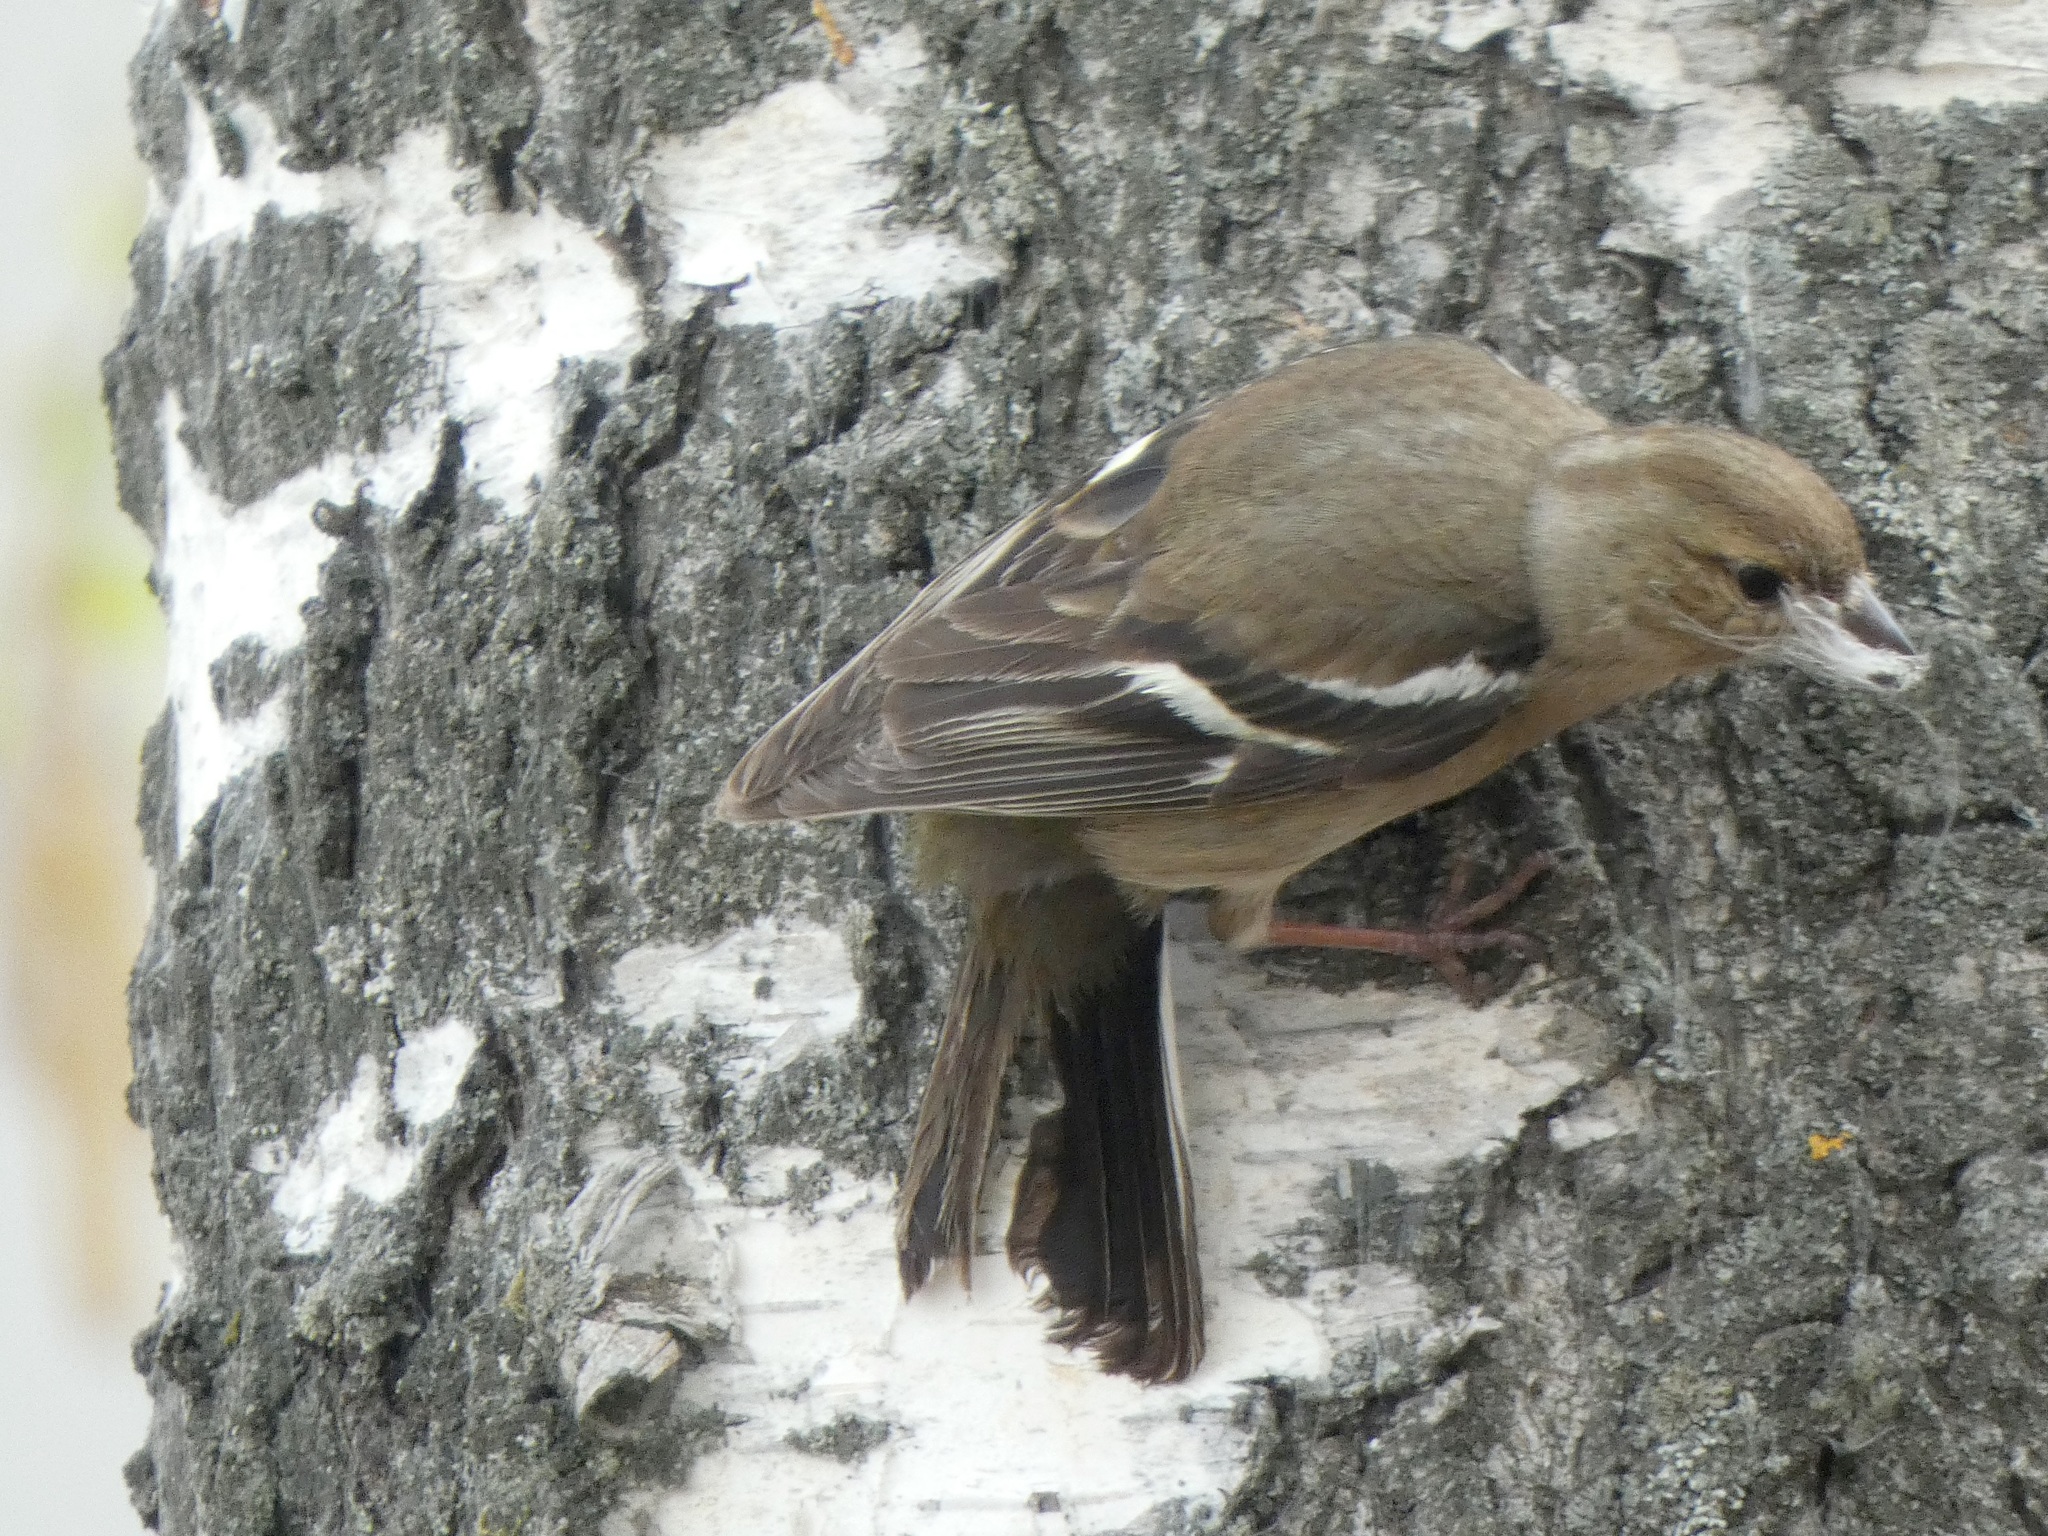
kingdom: Animalia
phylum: Chordata
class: Aves
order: Passeriformes
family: Fringillidae
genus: Fringilla
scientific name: Fringilla coelebs
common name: Common chaffinch
